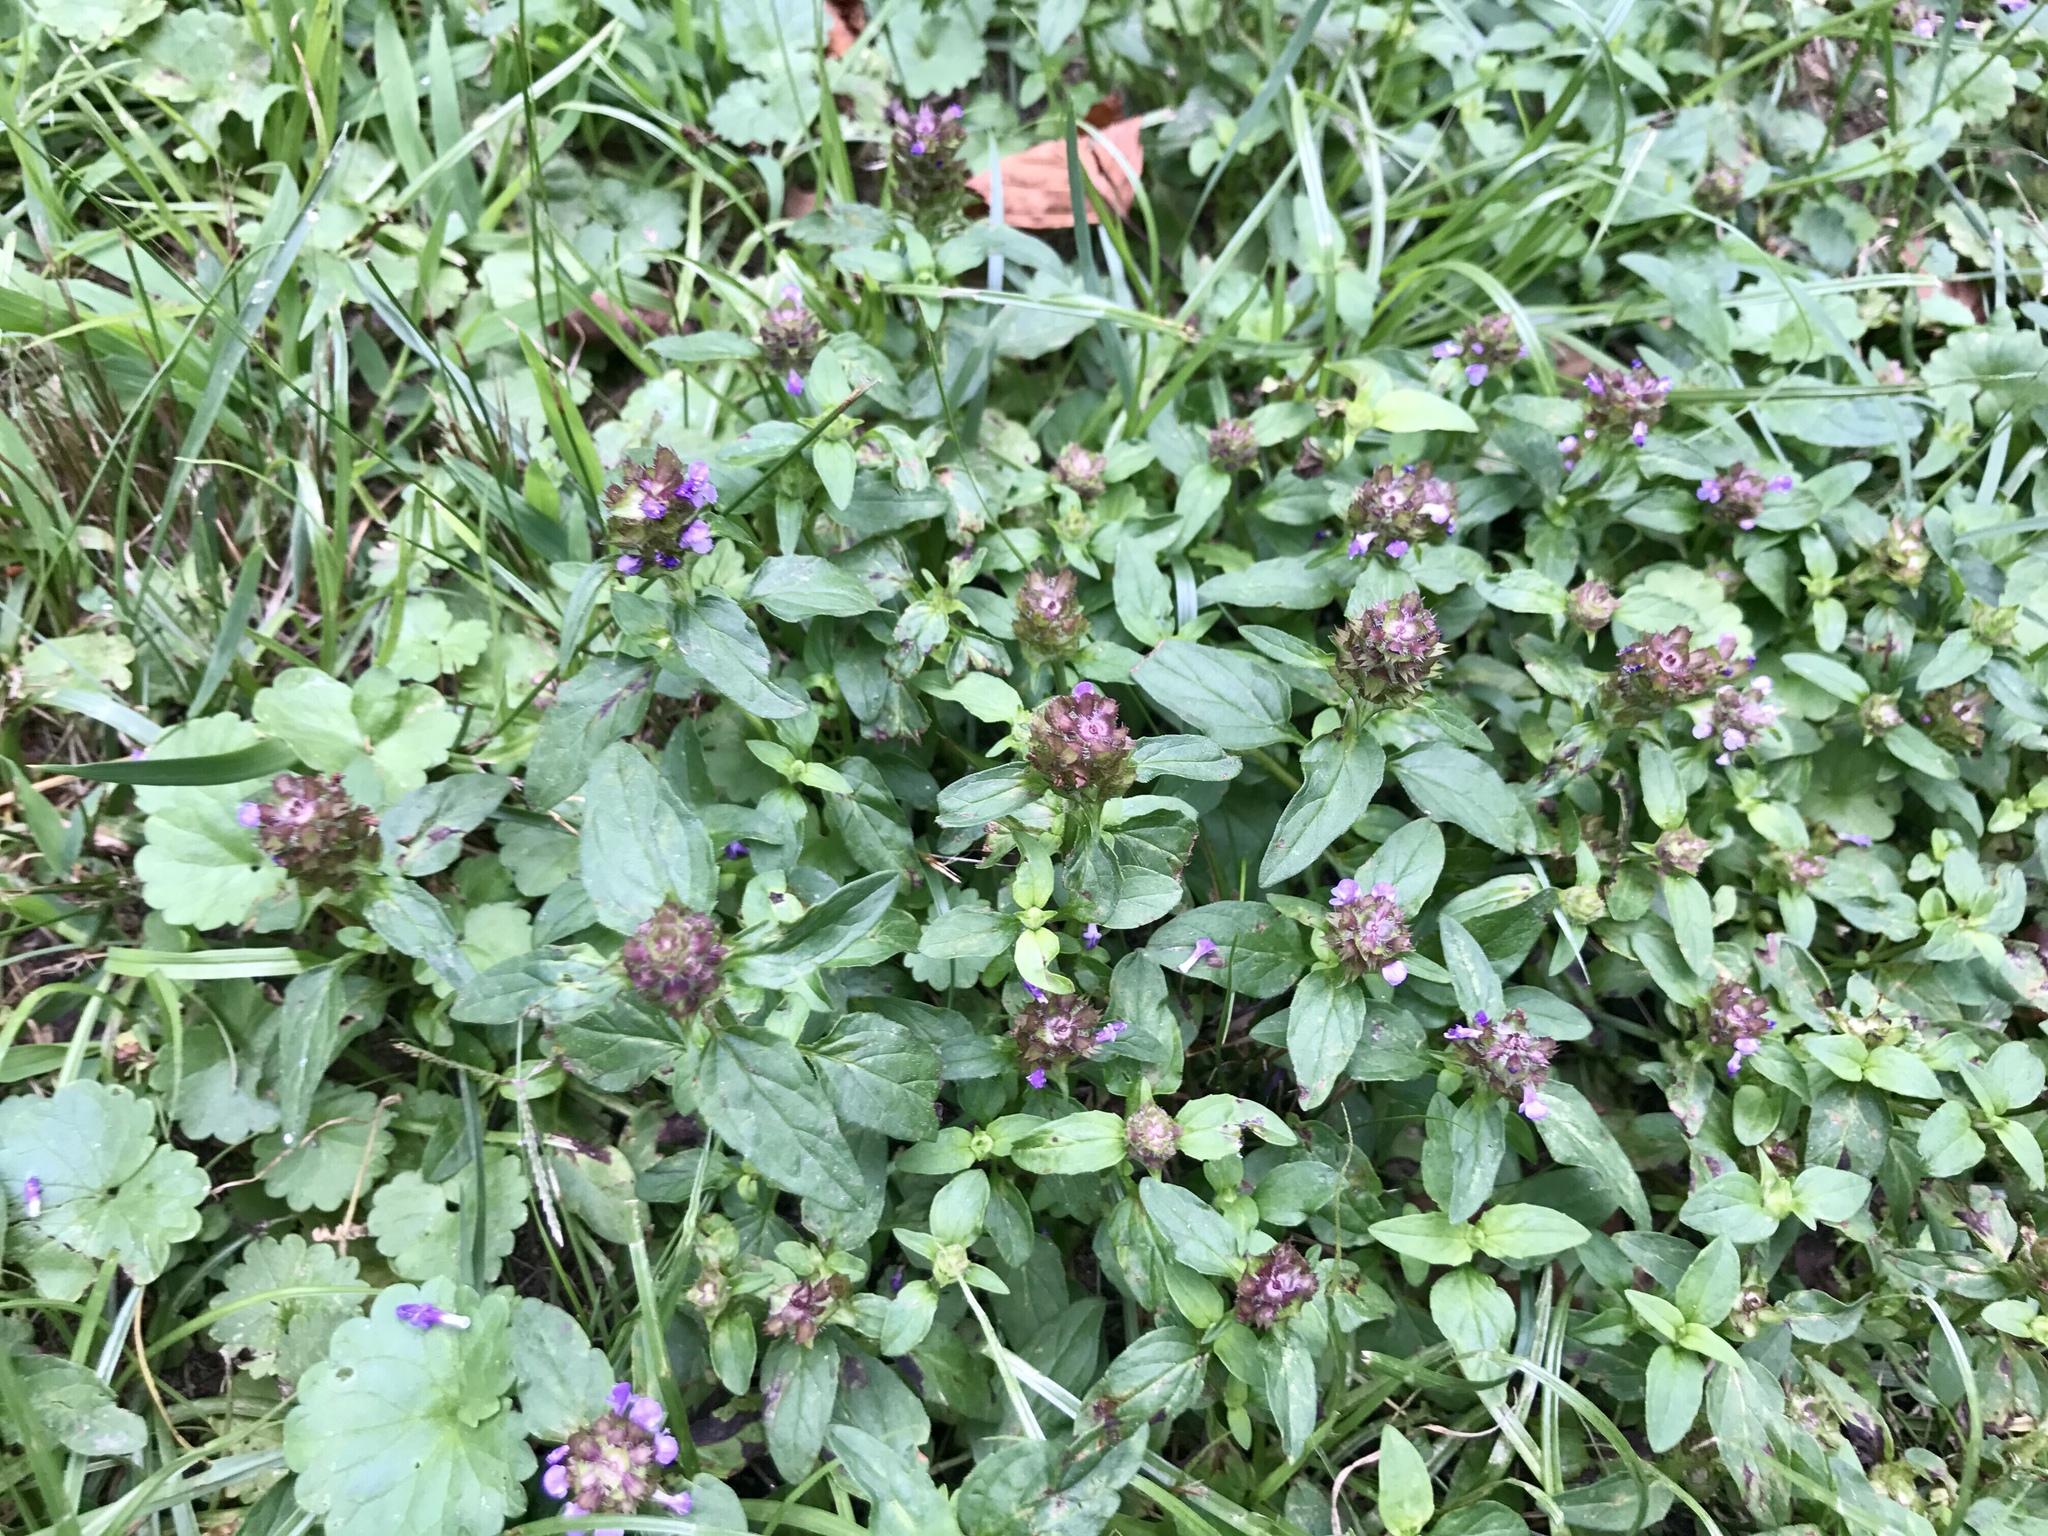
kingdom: Plantae
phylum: Tracheophyta
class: Magnoliopsida
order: Lamiales
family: Lamiaceae
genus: Prunella
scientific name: Prunella vulgaris
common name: Heal-all
